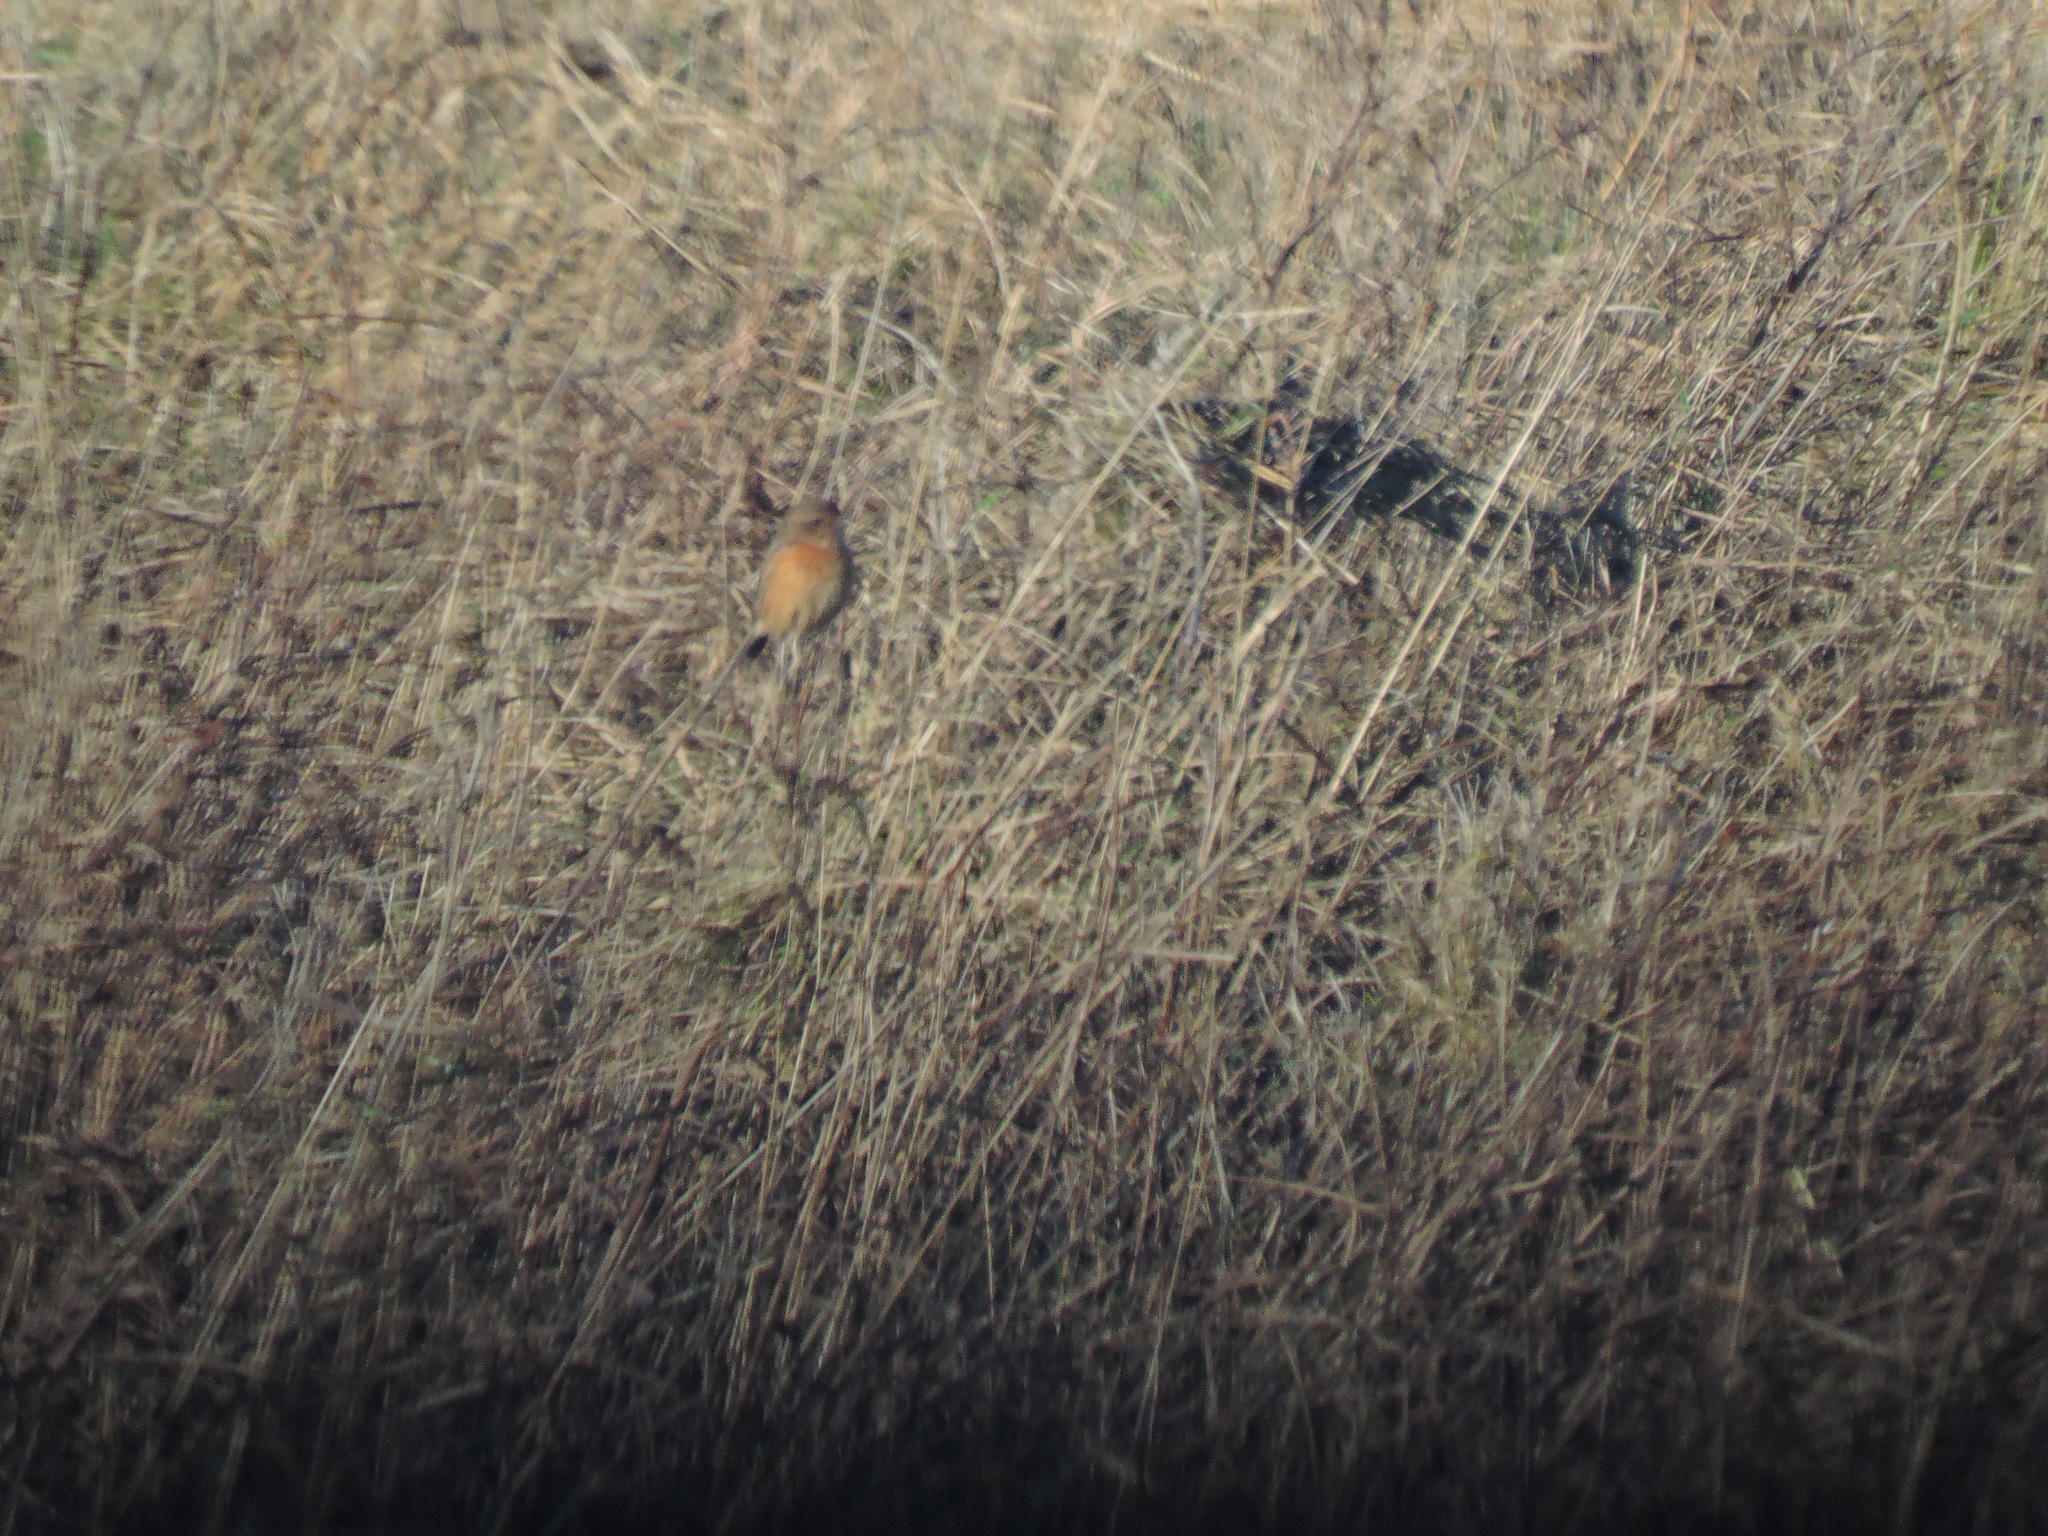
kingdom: Animalia
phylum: Chordata
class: Aves
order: Passeriformes
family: Muscicapidae
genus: Saxicola
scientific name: Saxicola rubicola
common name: European stonechat
